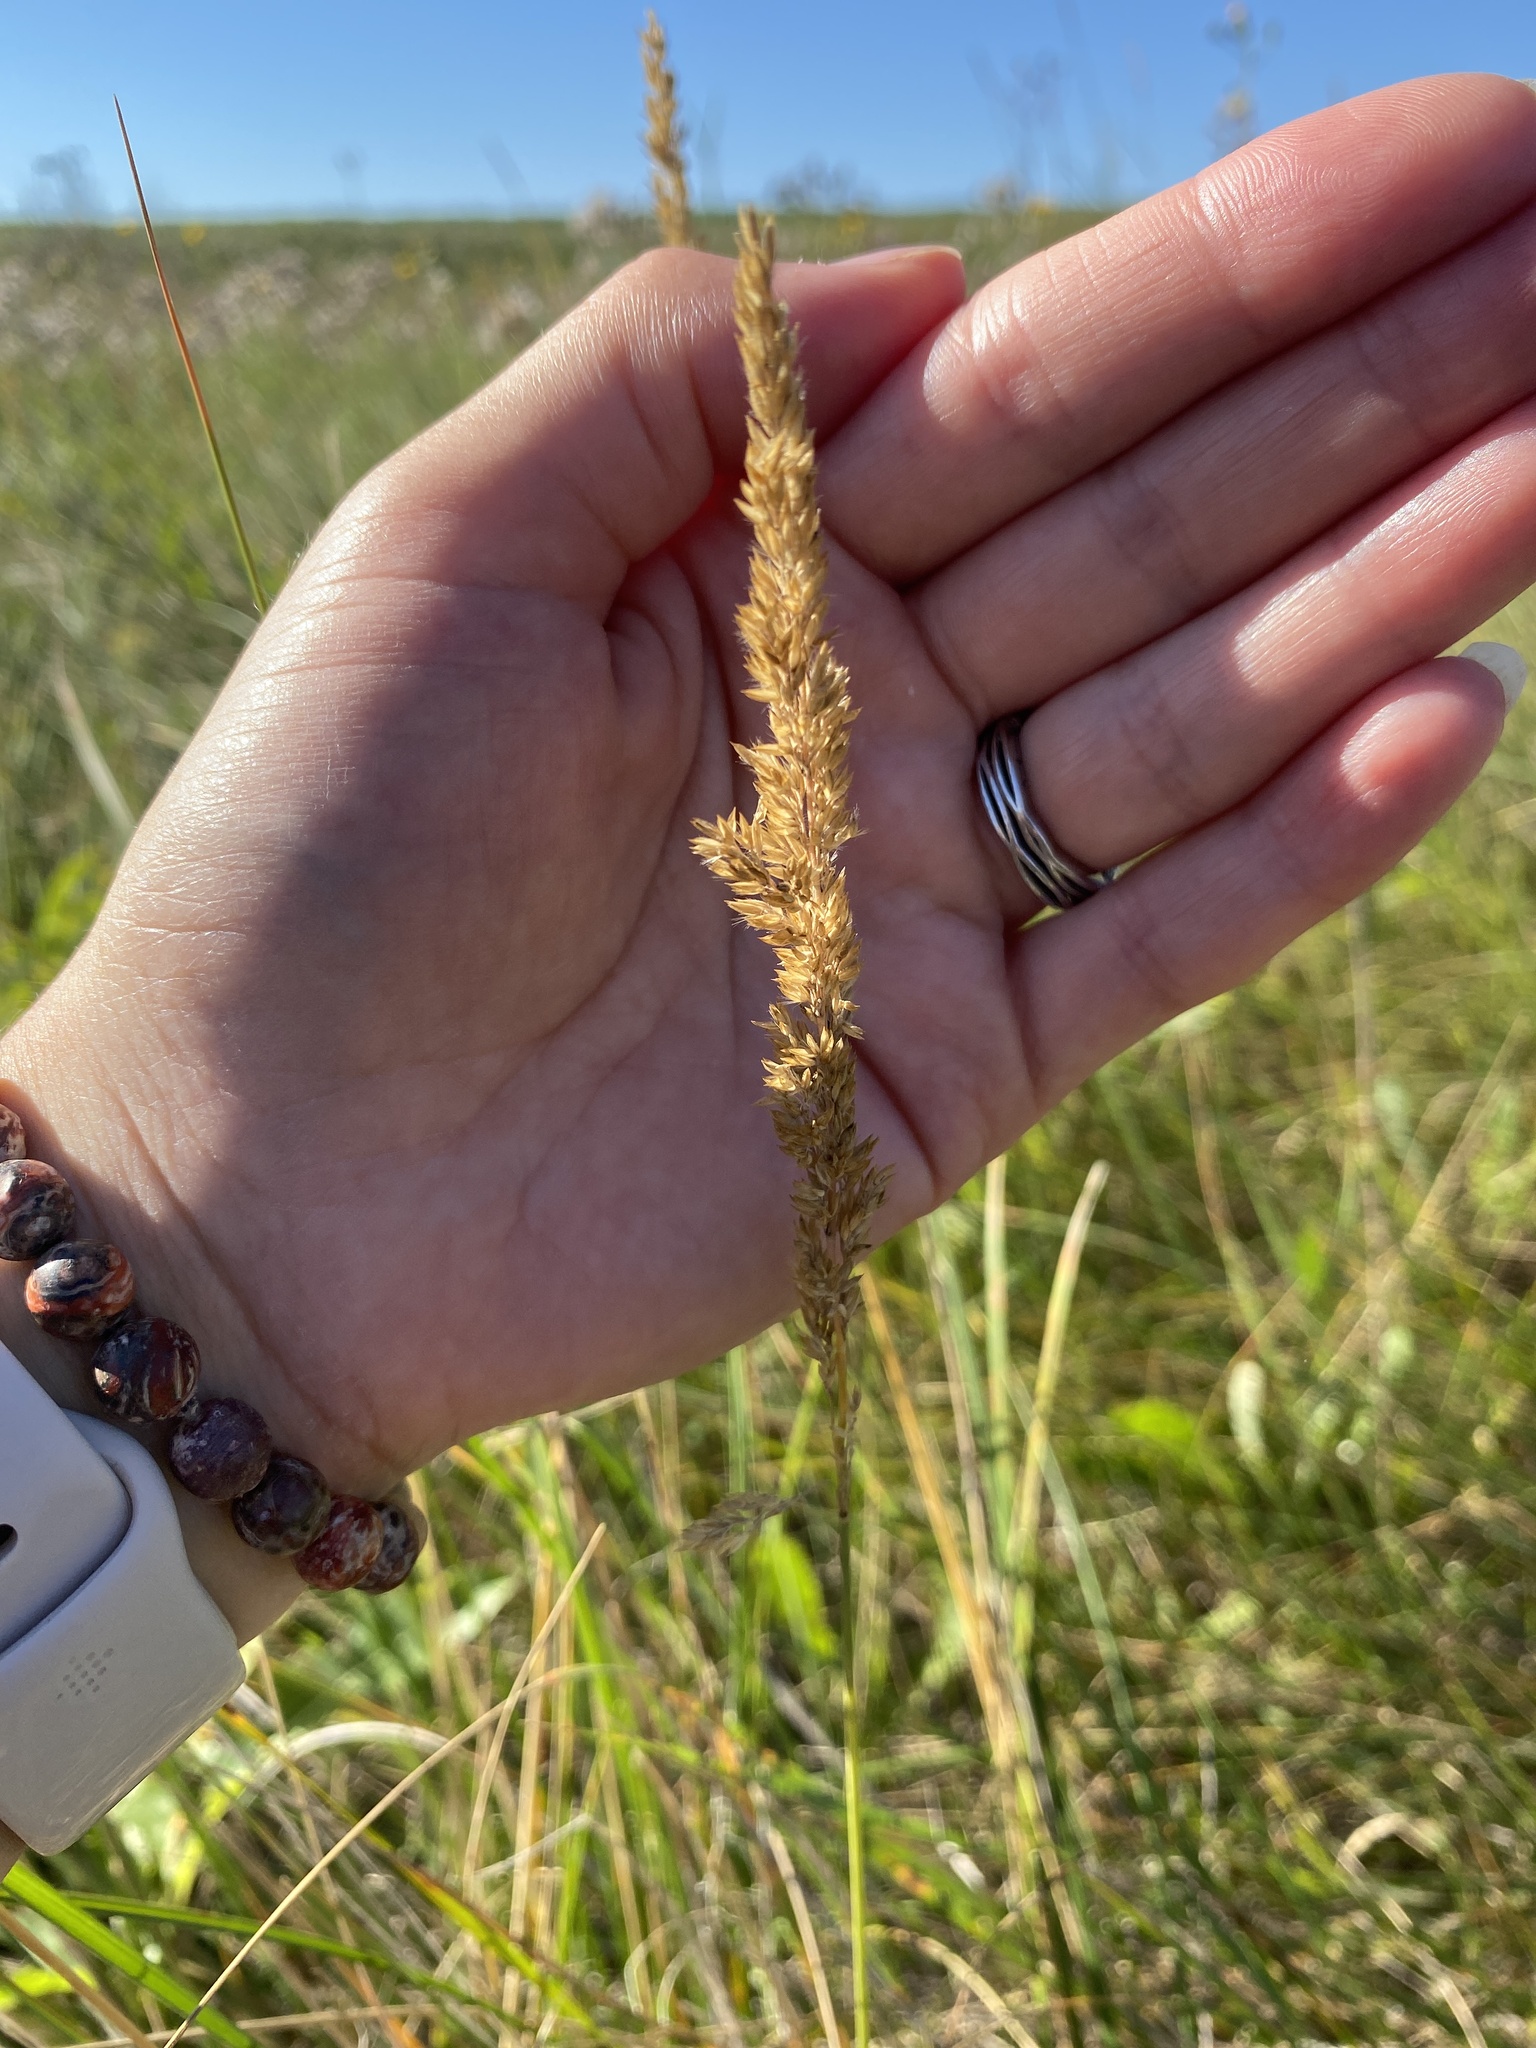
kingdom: Plantae
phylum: Tracheophyta
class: Liliopsida
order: Poales
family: Poaceae
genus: Calamagrostis
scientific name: Calamagrostis stricta
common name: Narrow small-reed
